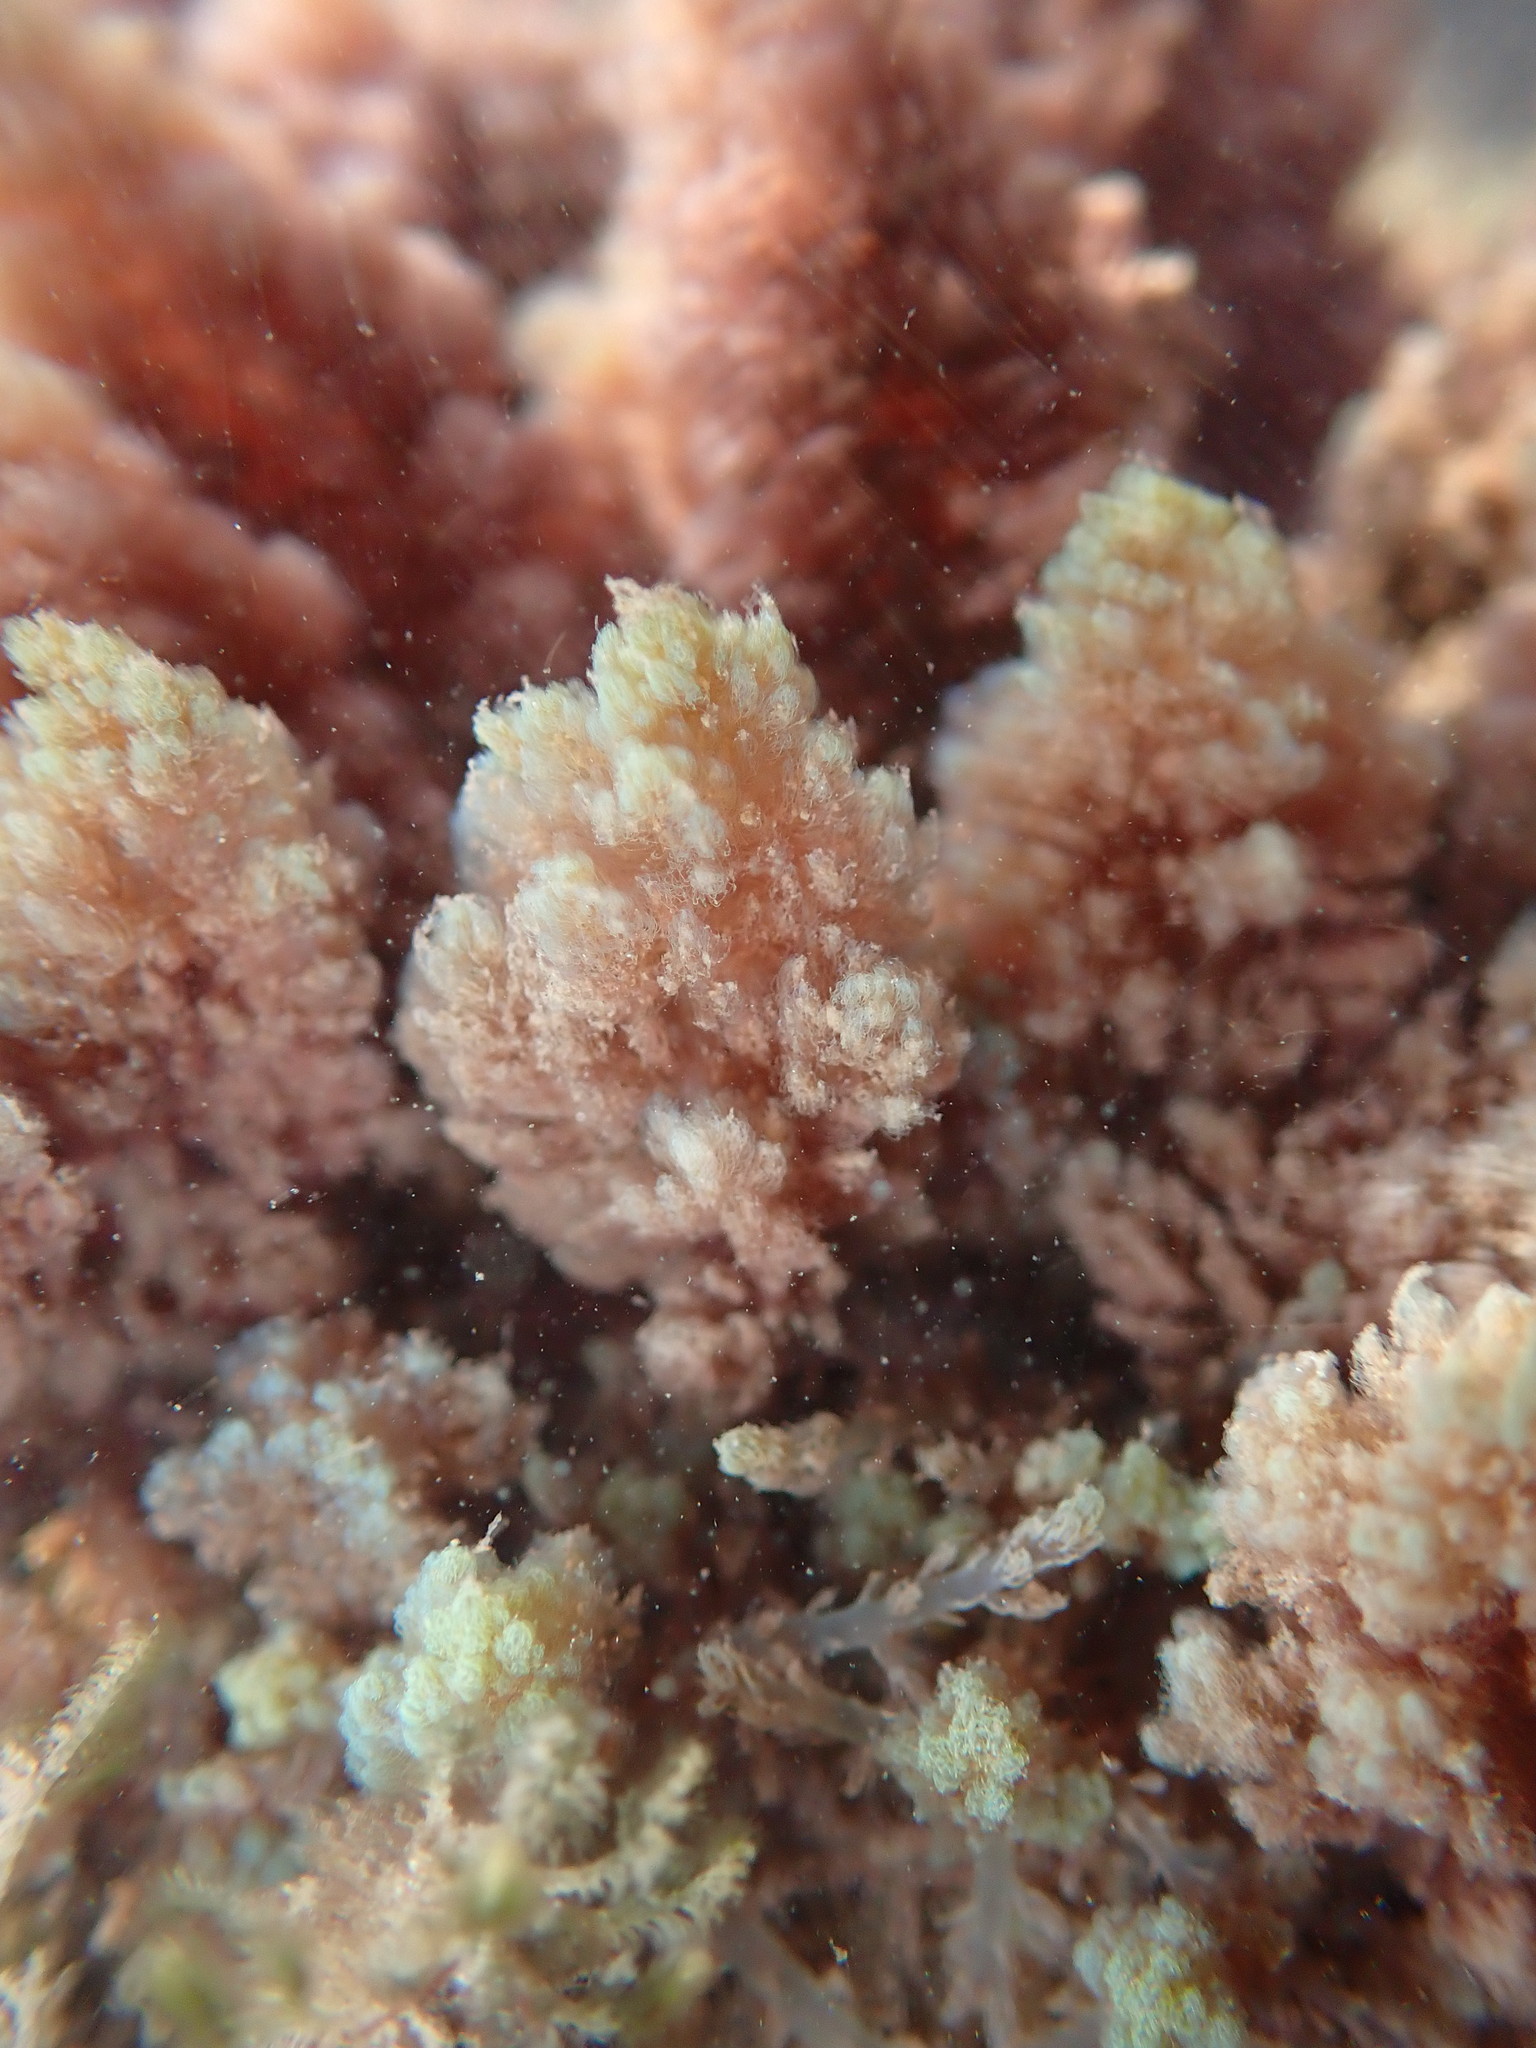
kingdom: Plantae
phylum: Rhodophyta
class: Florideophyceae
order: Bonnemaisoniales
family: Bonnemaisoniaceae
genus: Asparagopsis
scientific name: Asparagopsis taxiformis
